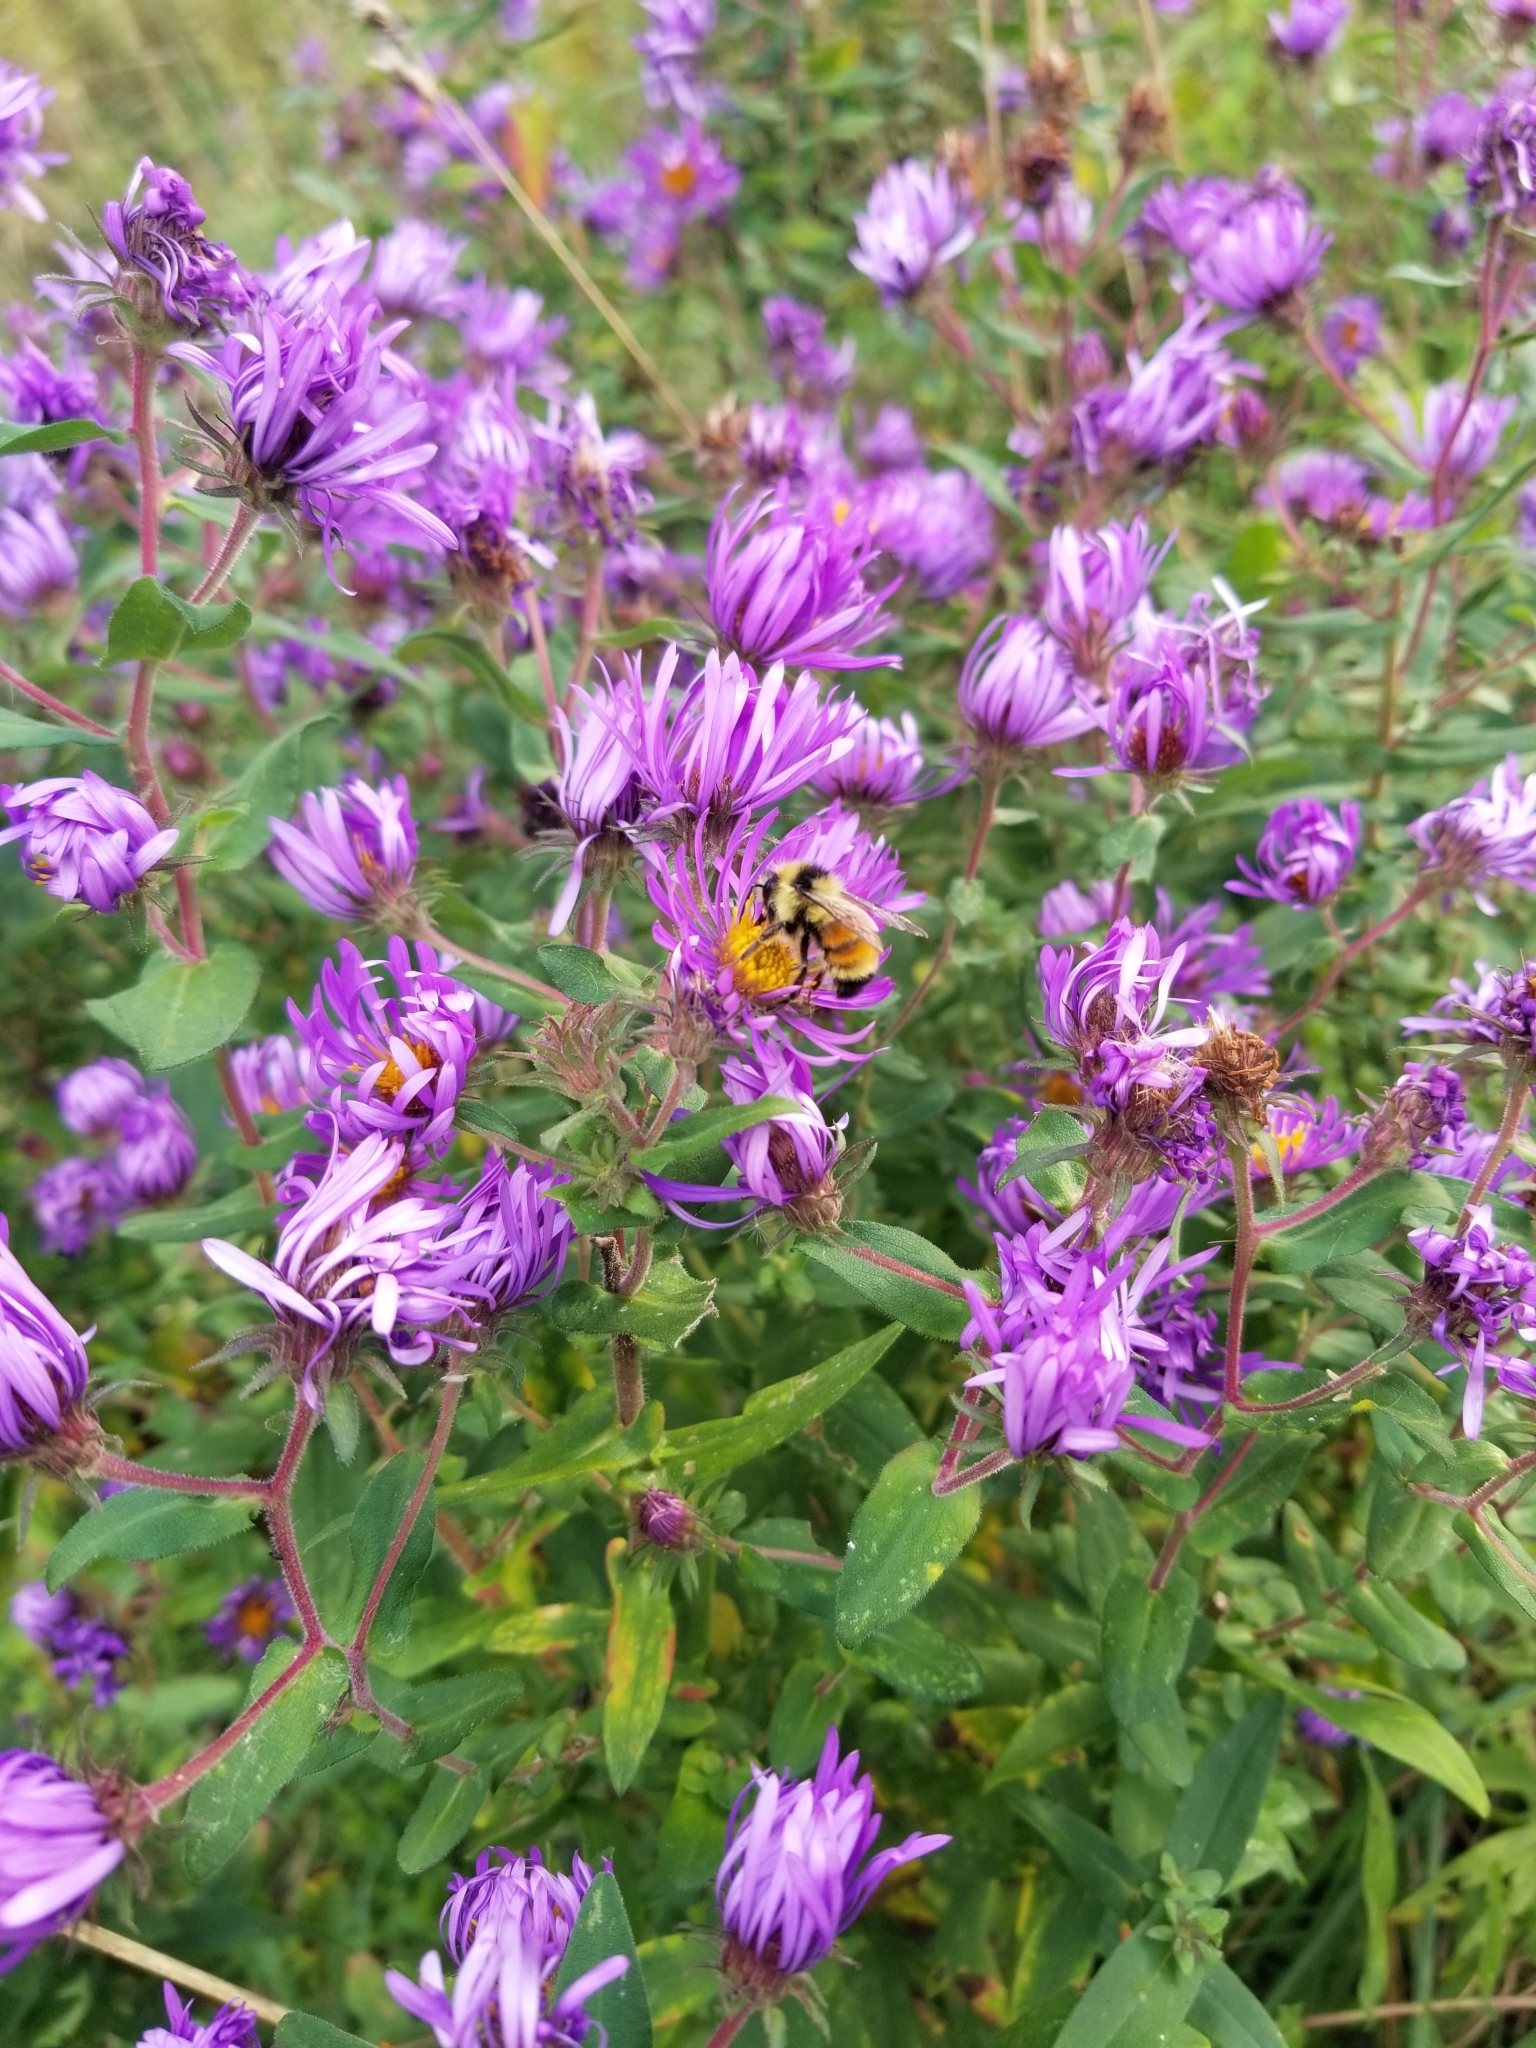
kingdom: Animalia
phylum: Arthropoda
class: Insecta
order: Hymenoptera
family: Apidae
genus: Bombus
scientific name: Bombus ternarius
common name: Tri-colored bumble bee
